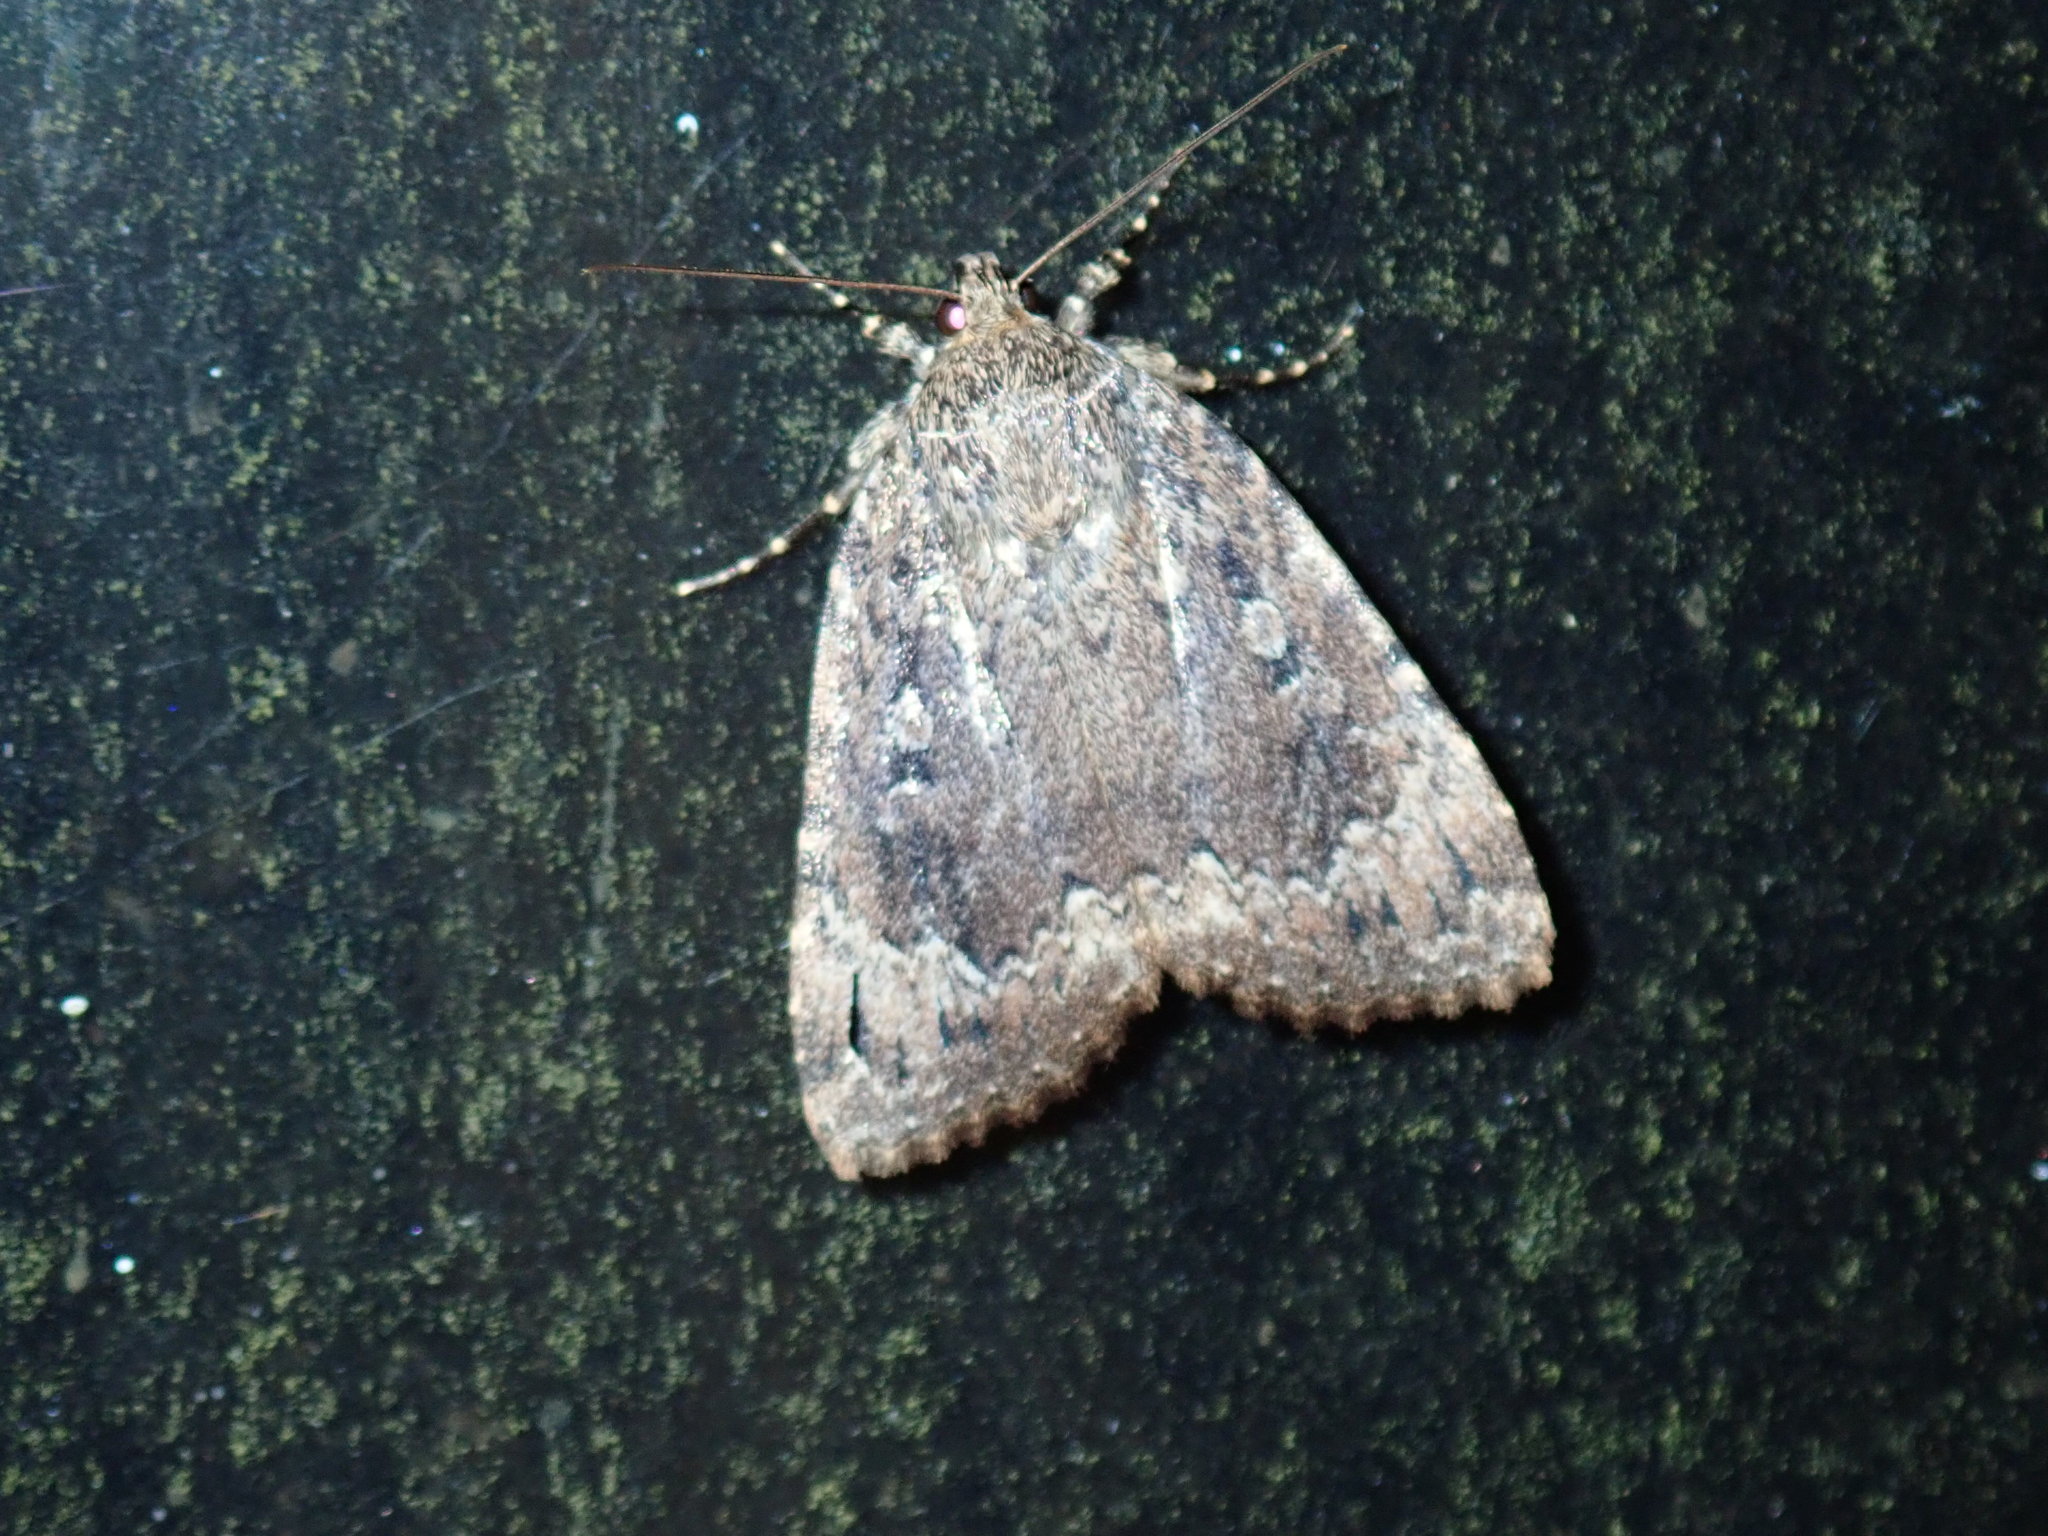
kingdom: Animalia
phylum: Arthropoda
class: Insecta
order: Lepidoptera
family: Noctuidae
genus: Amphipyra
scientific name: Amphipyra pyramidoides
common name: American copper underwing
